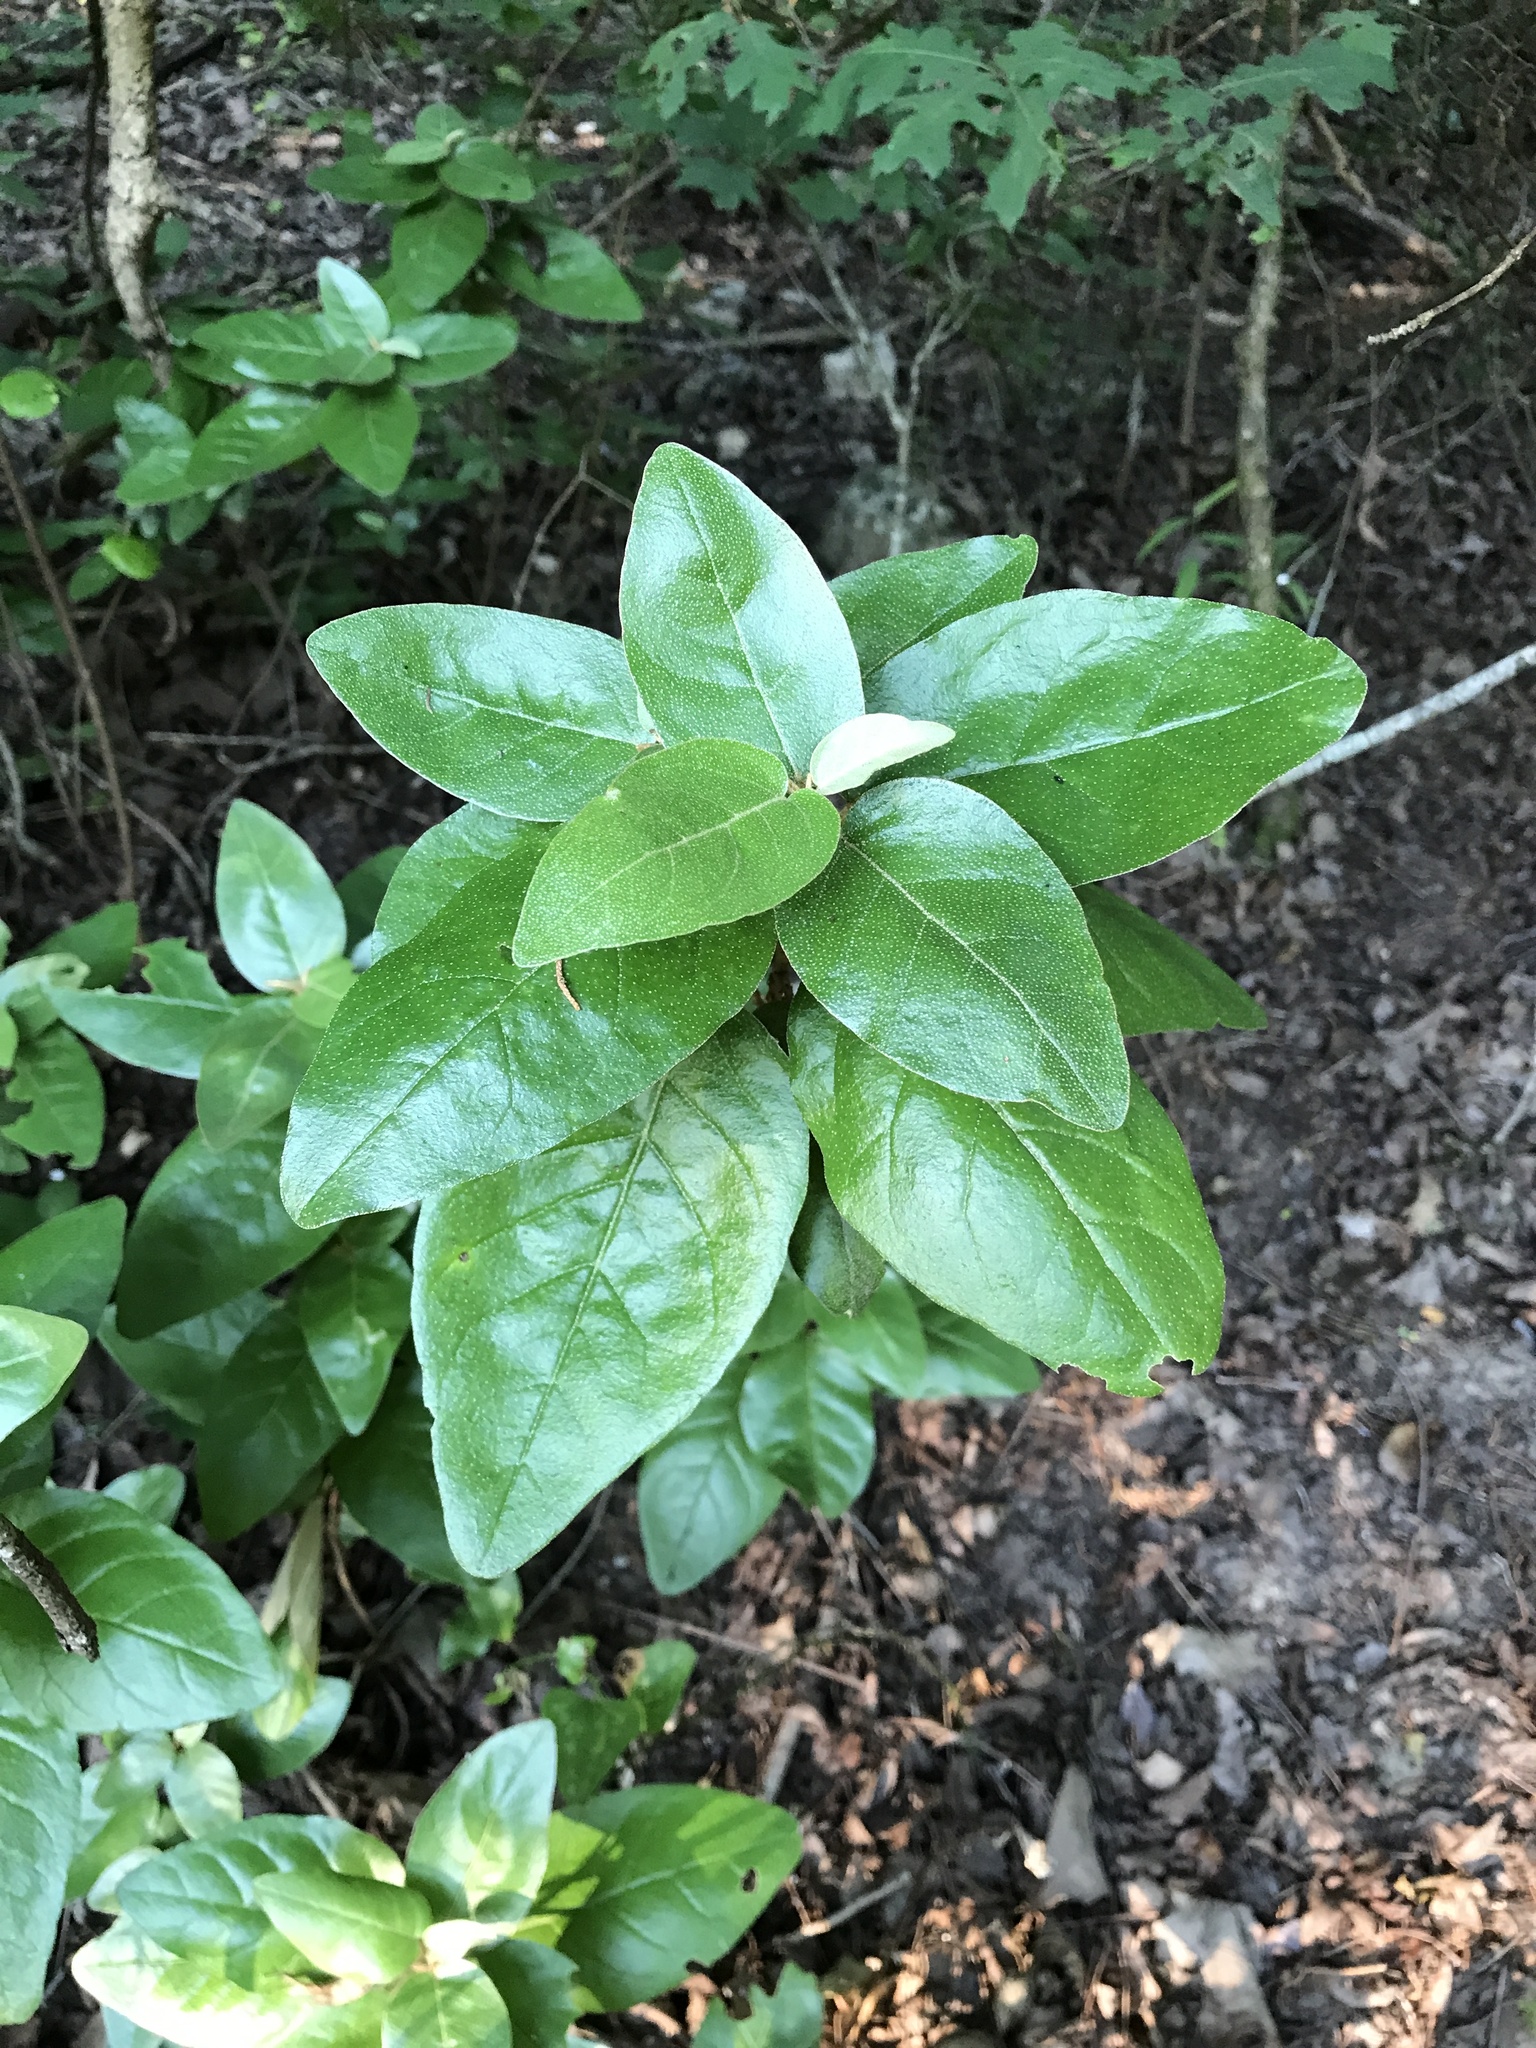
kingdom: Plantae
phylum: Tracheophyta
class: Magnoliopsida
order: Malpighiales
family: Euphorbiaceae
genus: Croton
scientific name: Croton alabamensis
